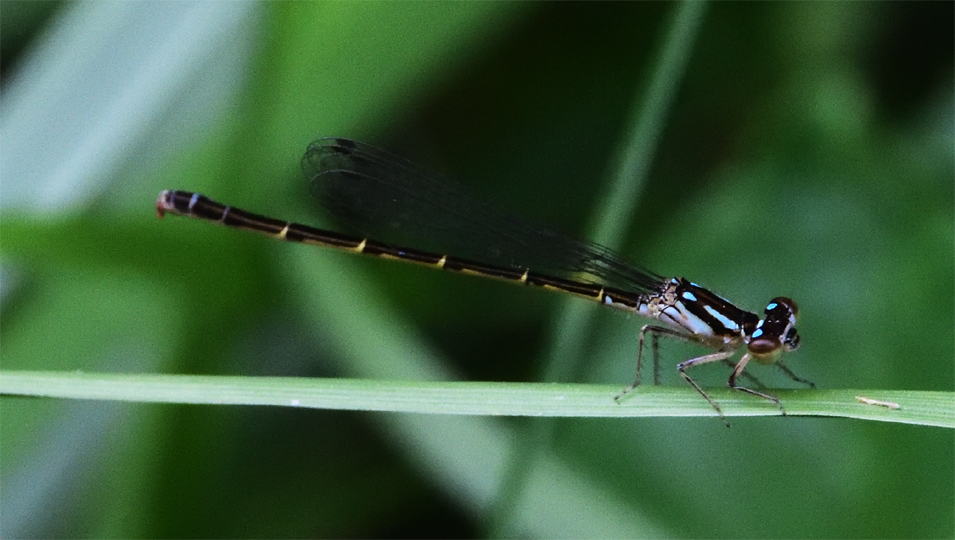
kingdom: Animalia
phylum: Arthropoda
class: Insecta
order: Odonata
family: Coenagrionidae
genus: Ischnura
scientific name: Ischnura posita
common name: Fragile forktail
